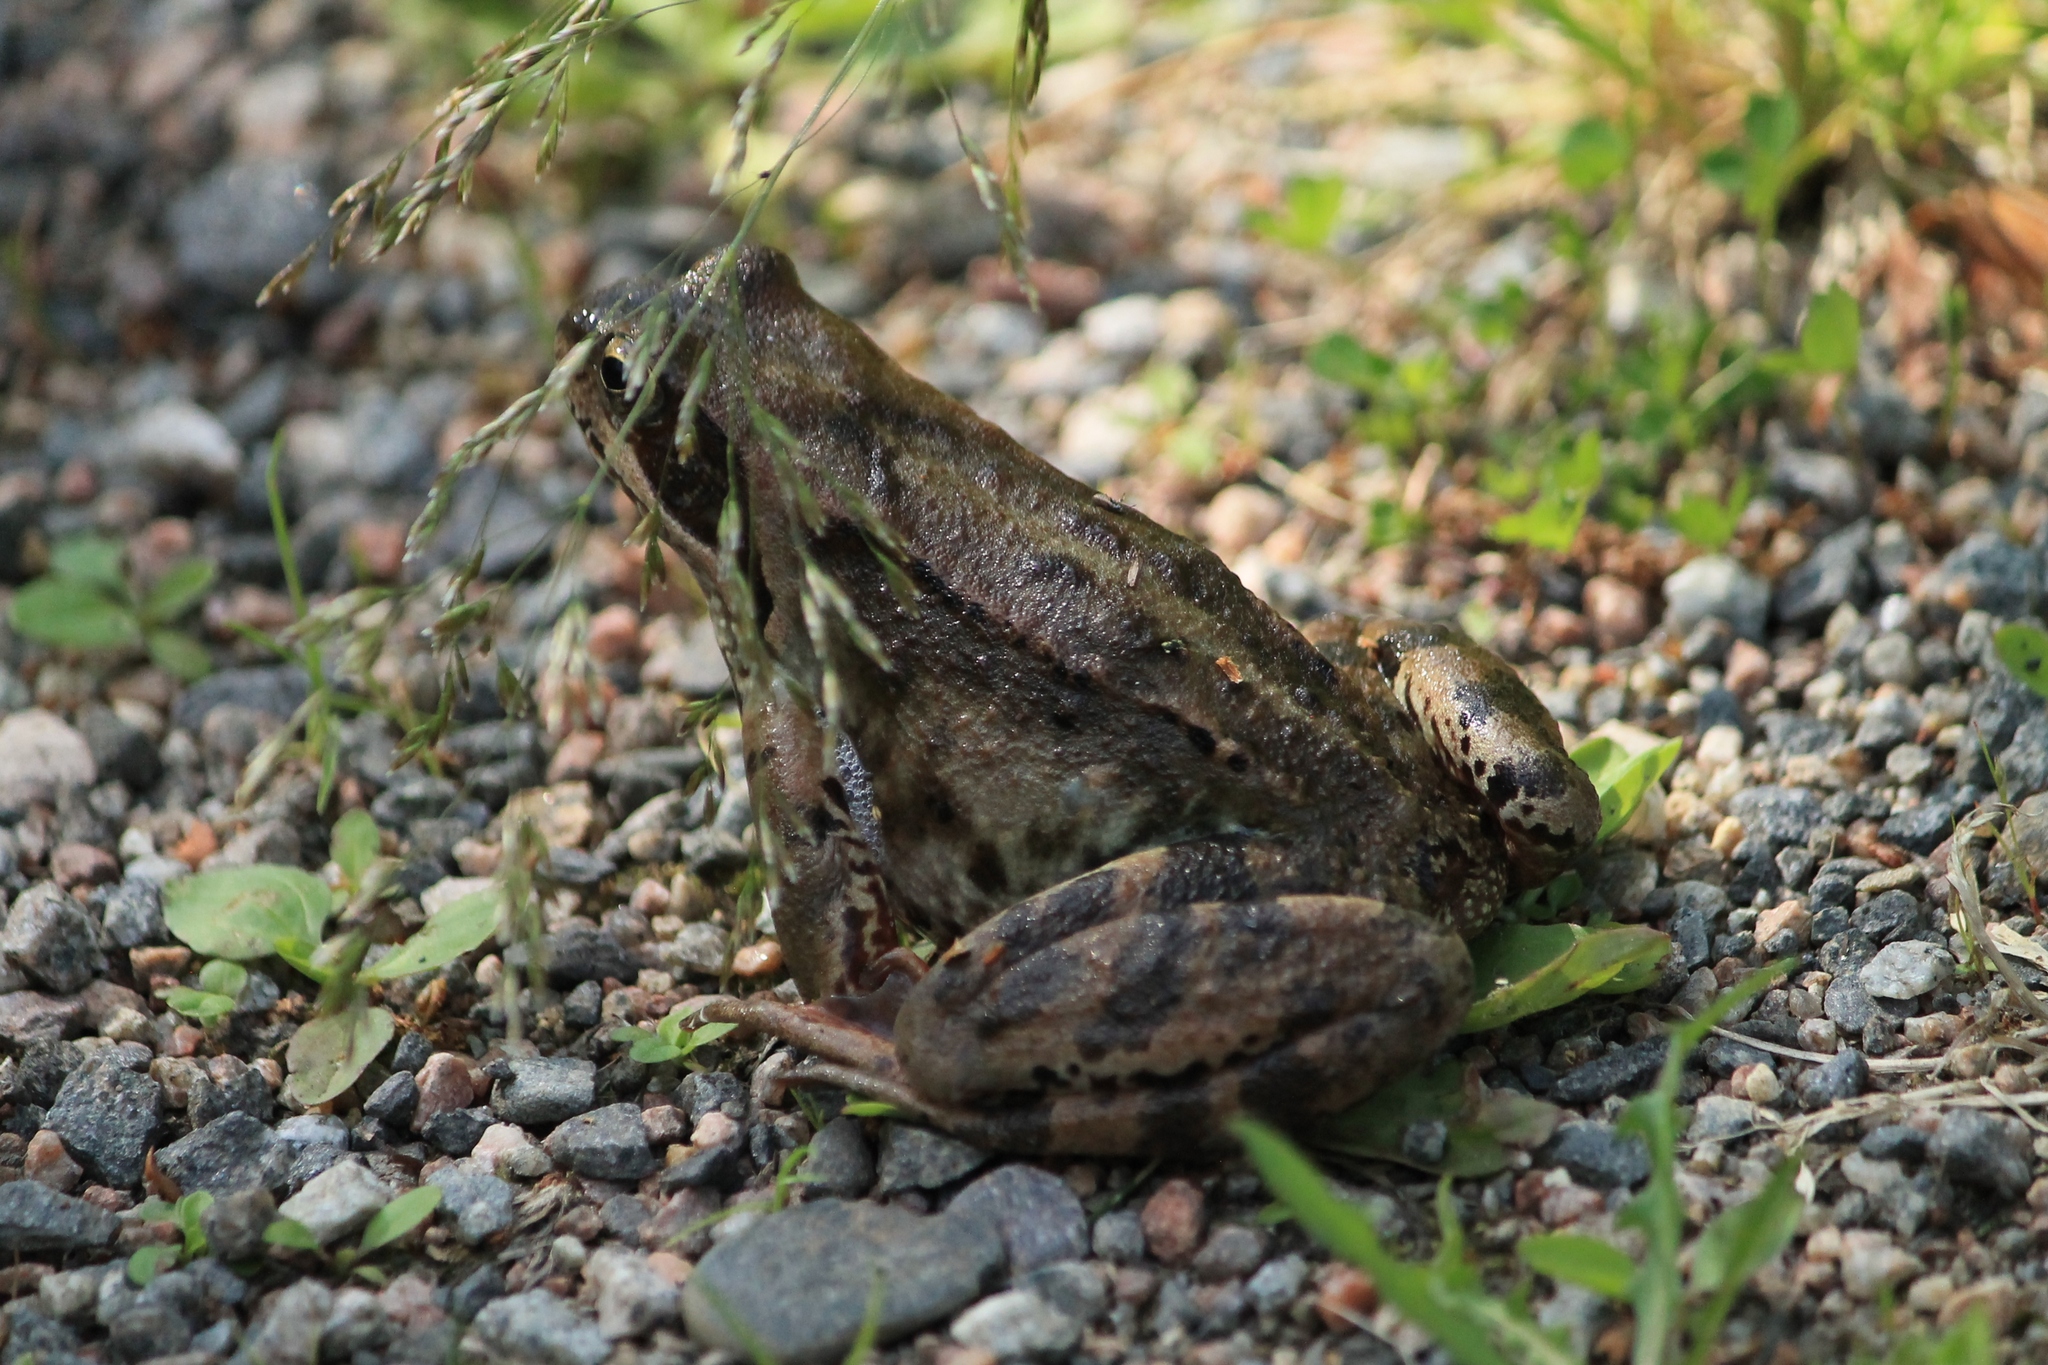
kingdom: Animalia
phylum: Chordata
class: Amphibia
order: Anura
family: Ranidae
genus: Rana
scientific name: Rana temporaria
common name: Common frog
